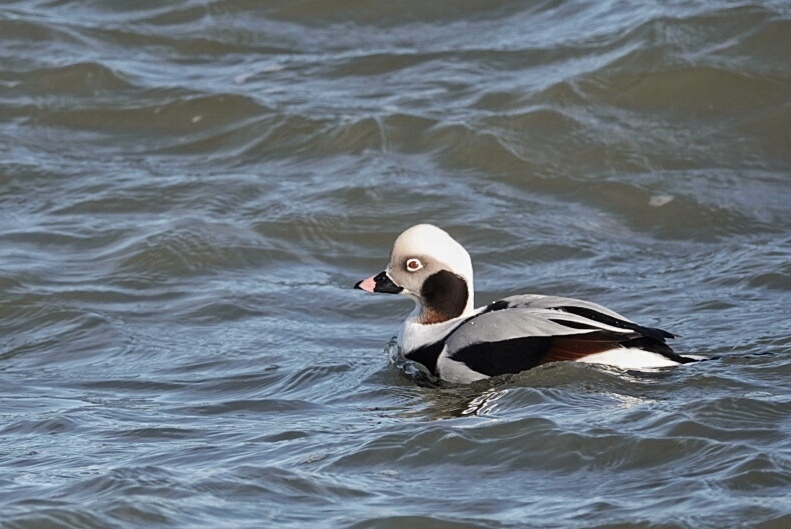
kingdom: Animalia
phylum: Chordata
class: Aves
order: Anseriformes
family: Anatidae
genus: Clangula
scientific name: Clangula hyemalis
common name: Long-tailed duck
